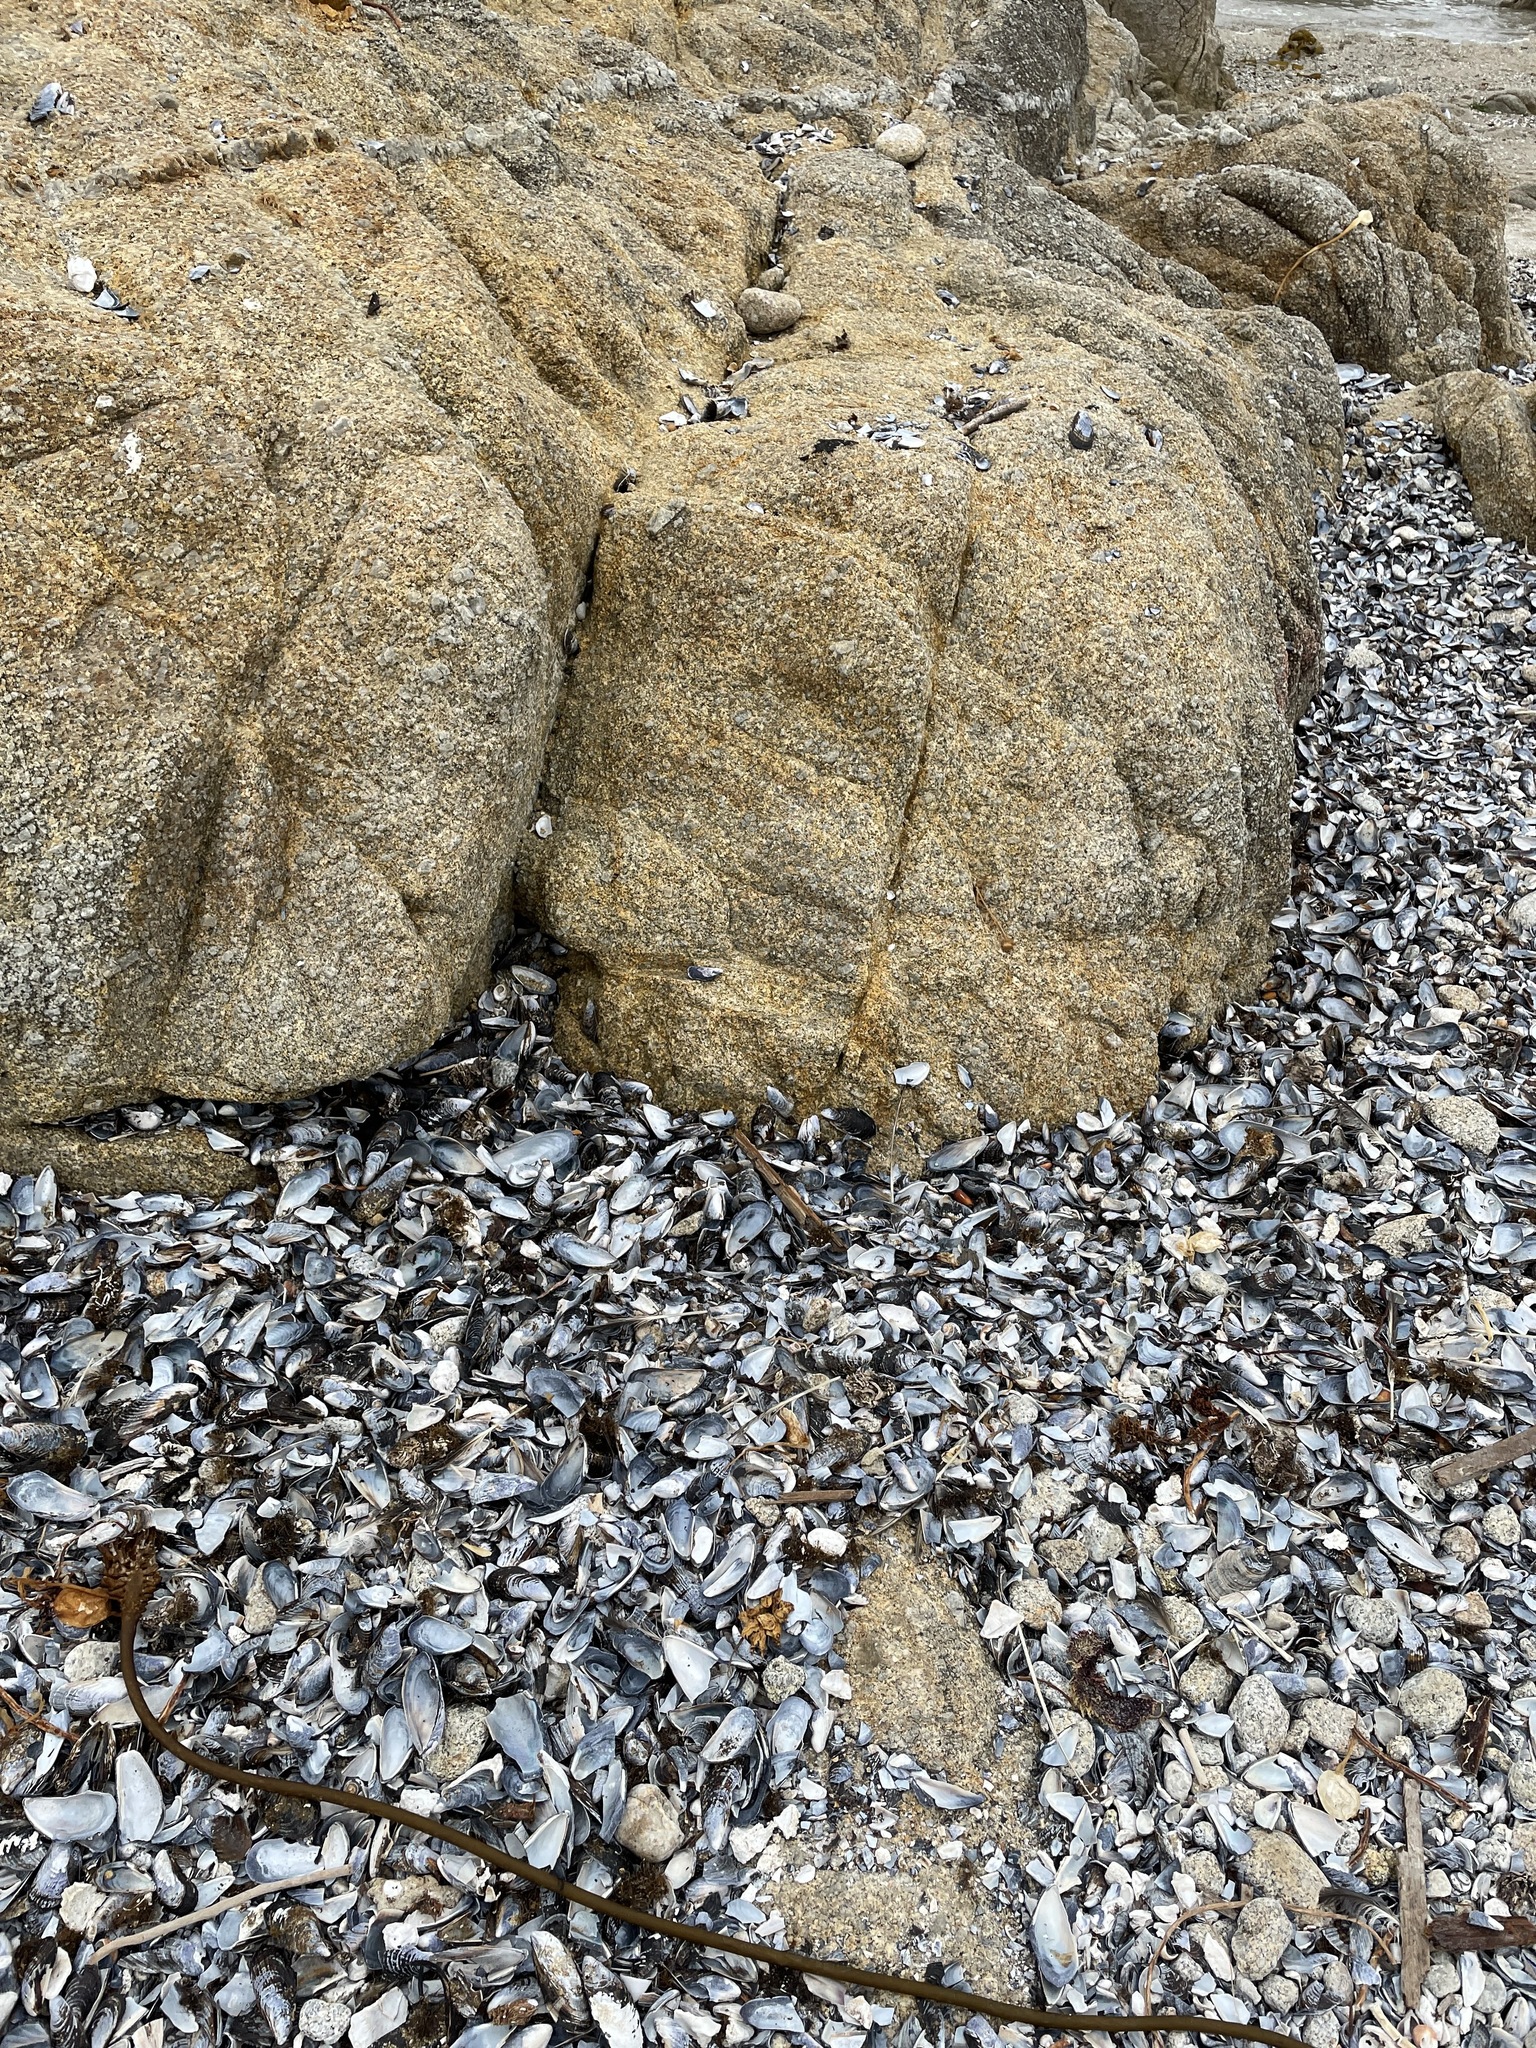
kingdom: Animalia
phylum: Mollusca
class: Bivalvia
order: Mytilida
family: Mytilidae
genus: Mytilus
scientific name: Mytilus californianus
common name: California mussel
